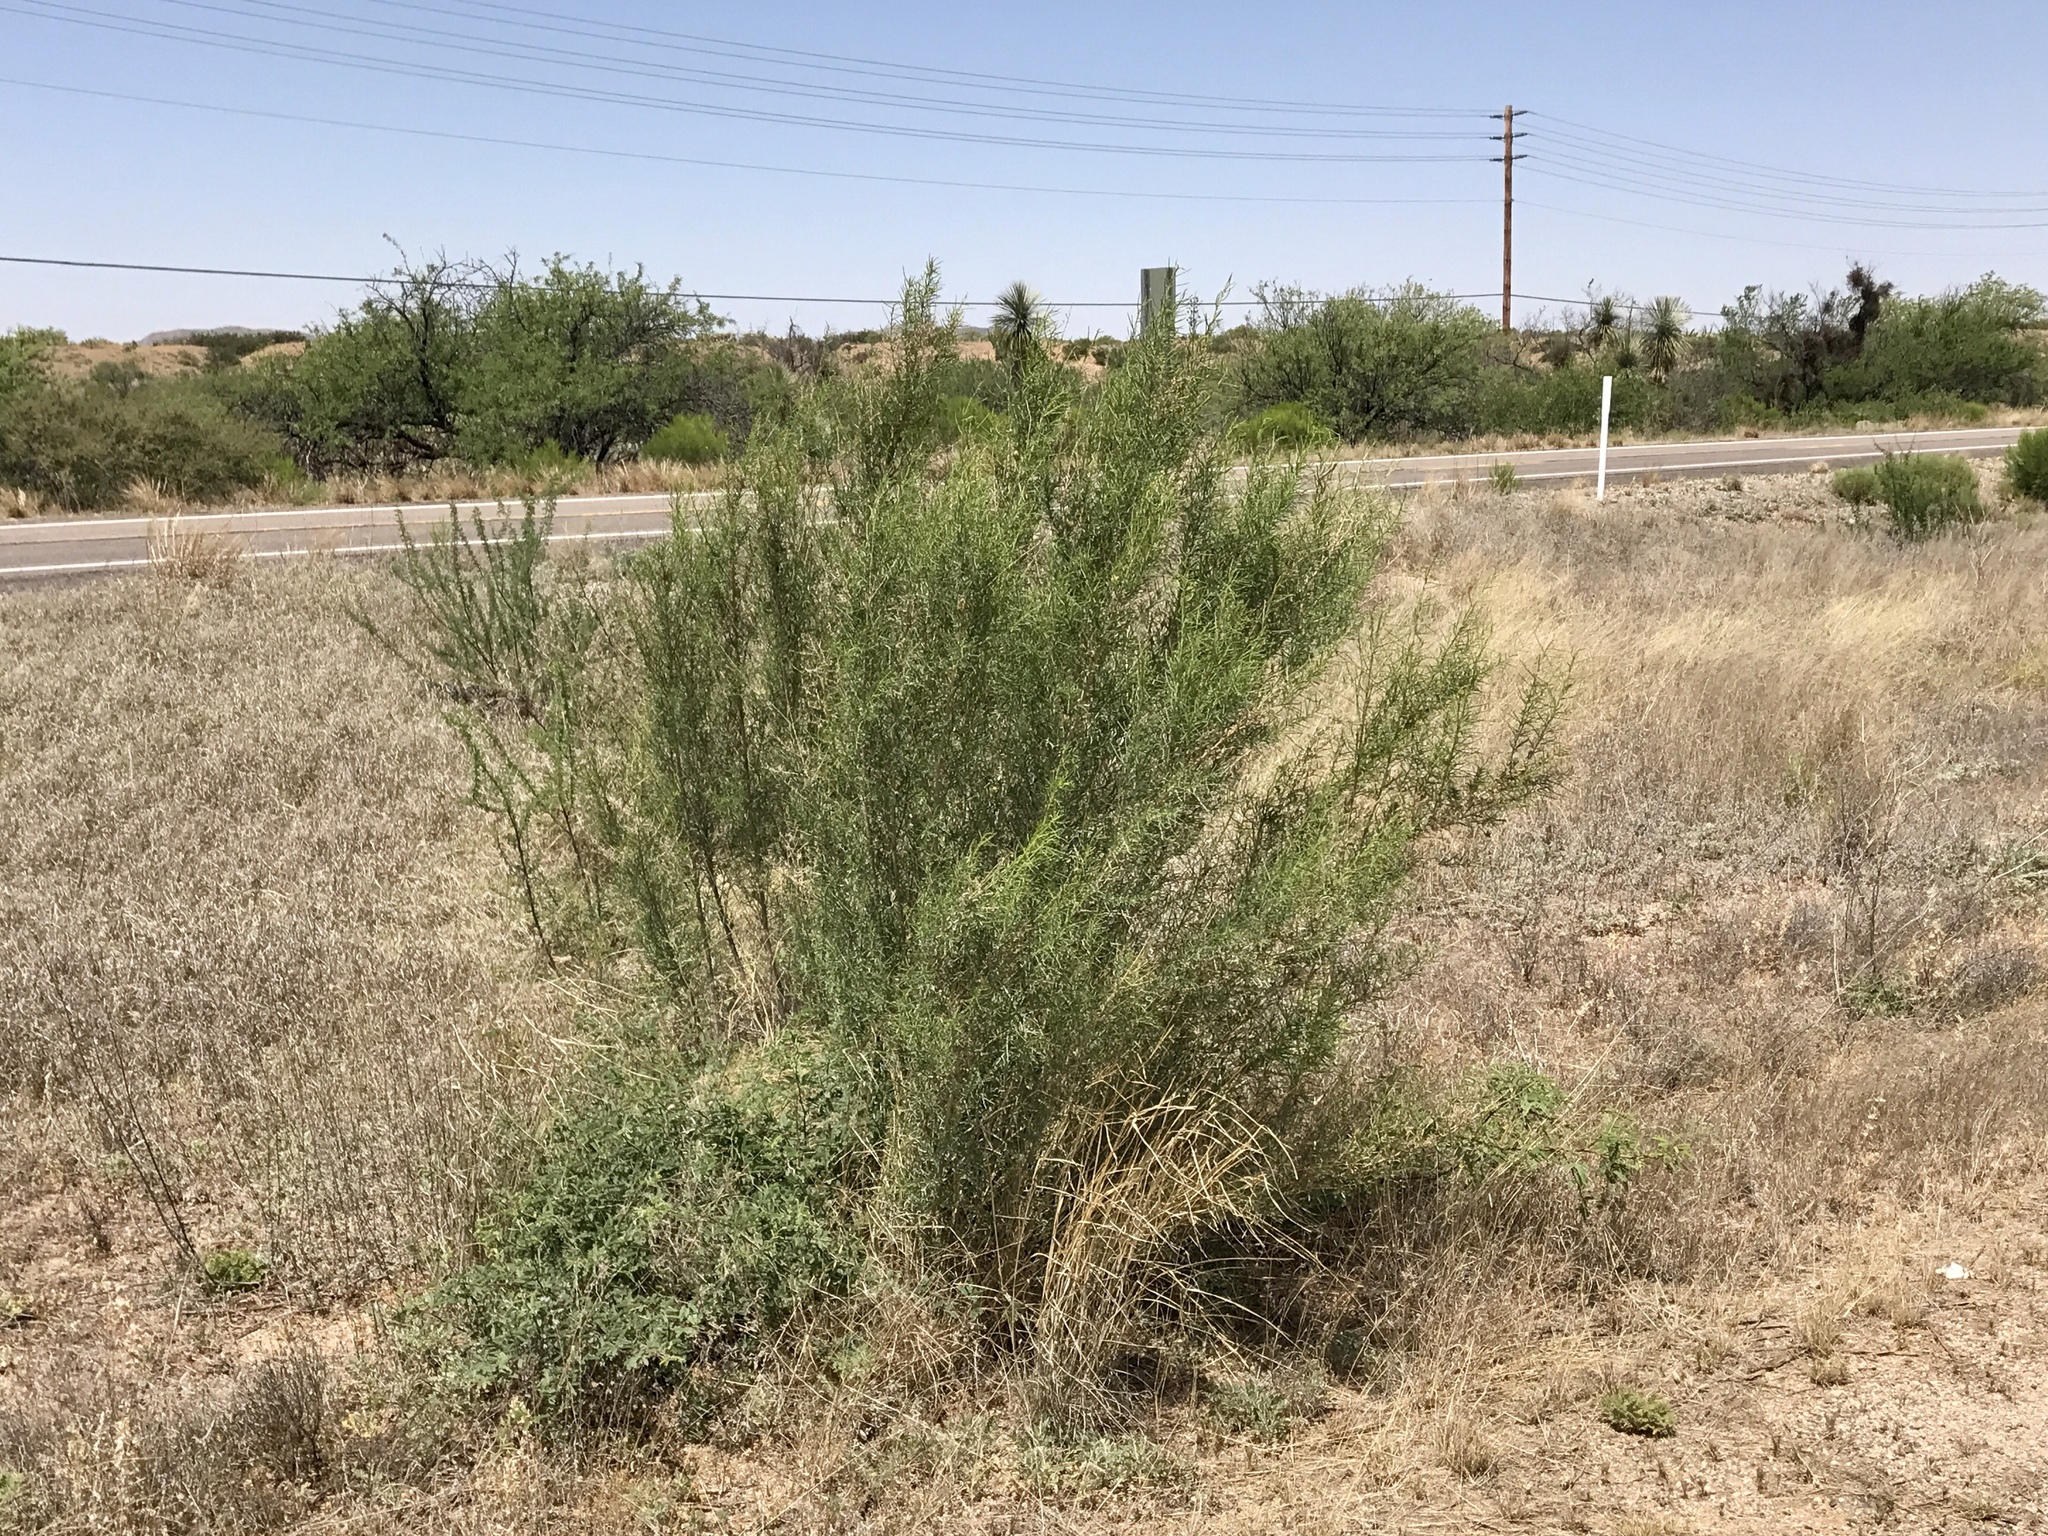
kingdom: Plantae
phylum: Tracheophyta
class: Magnoliopsida
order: Asterales
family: Asteraceae
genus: Ambrosia
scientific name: Ambrosia monogyra
